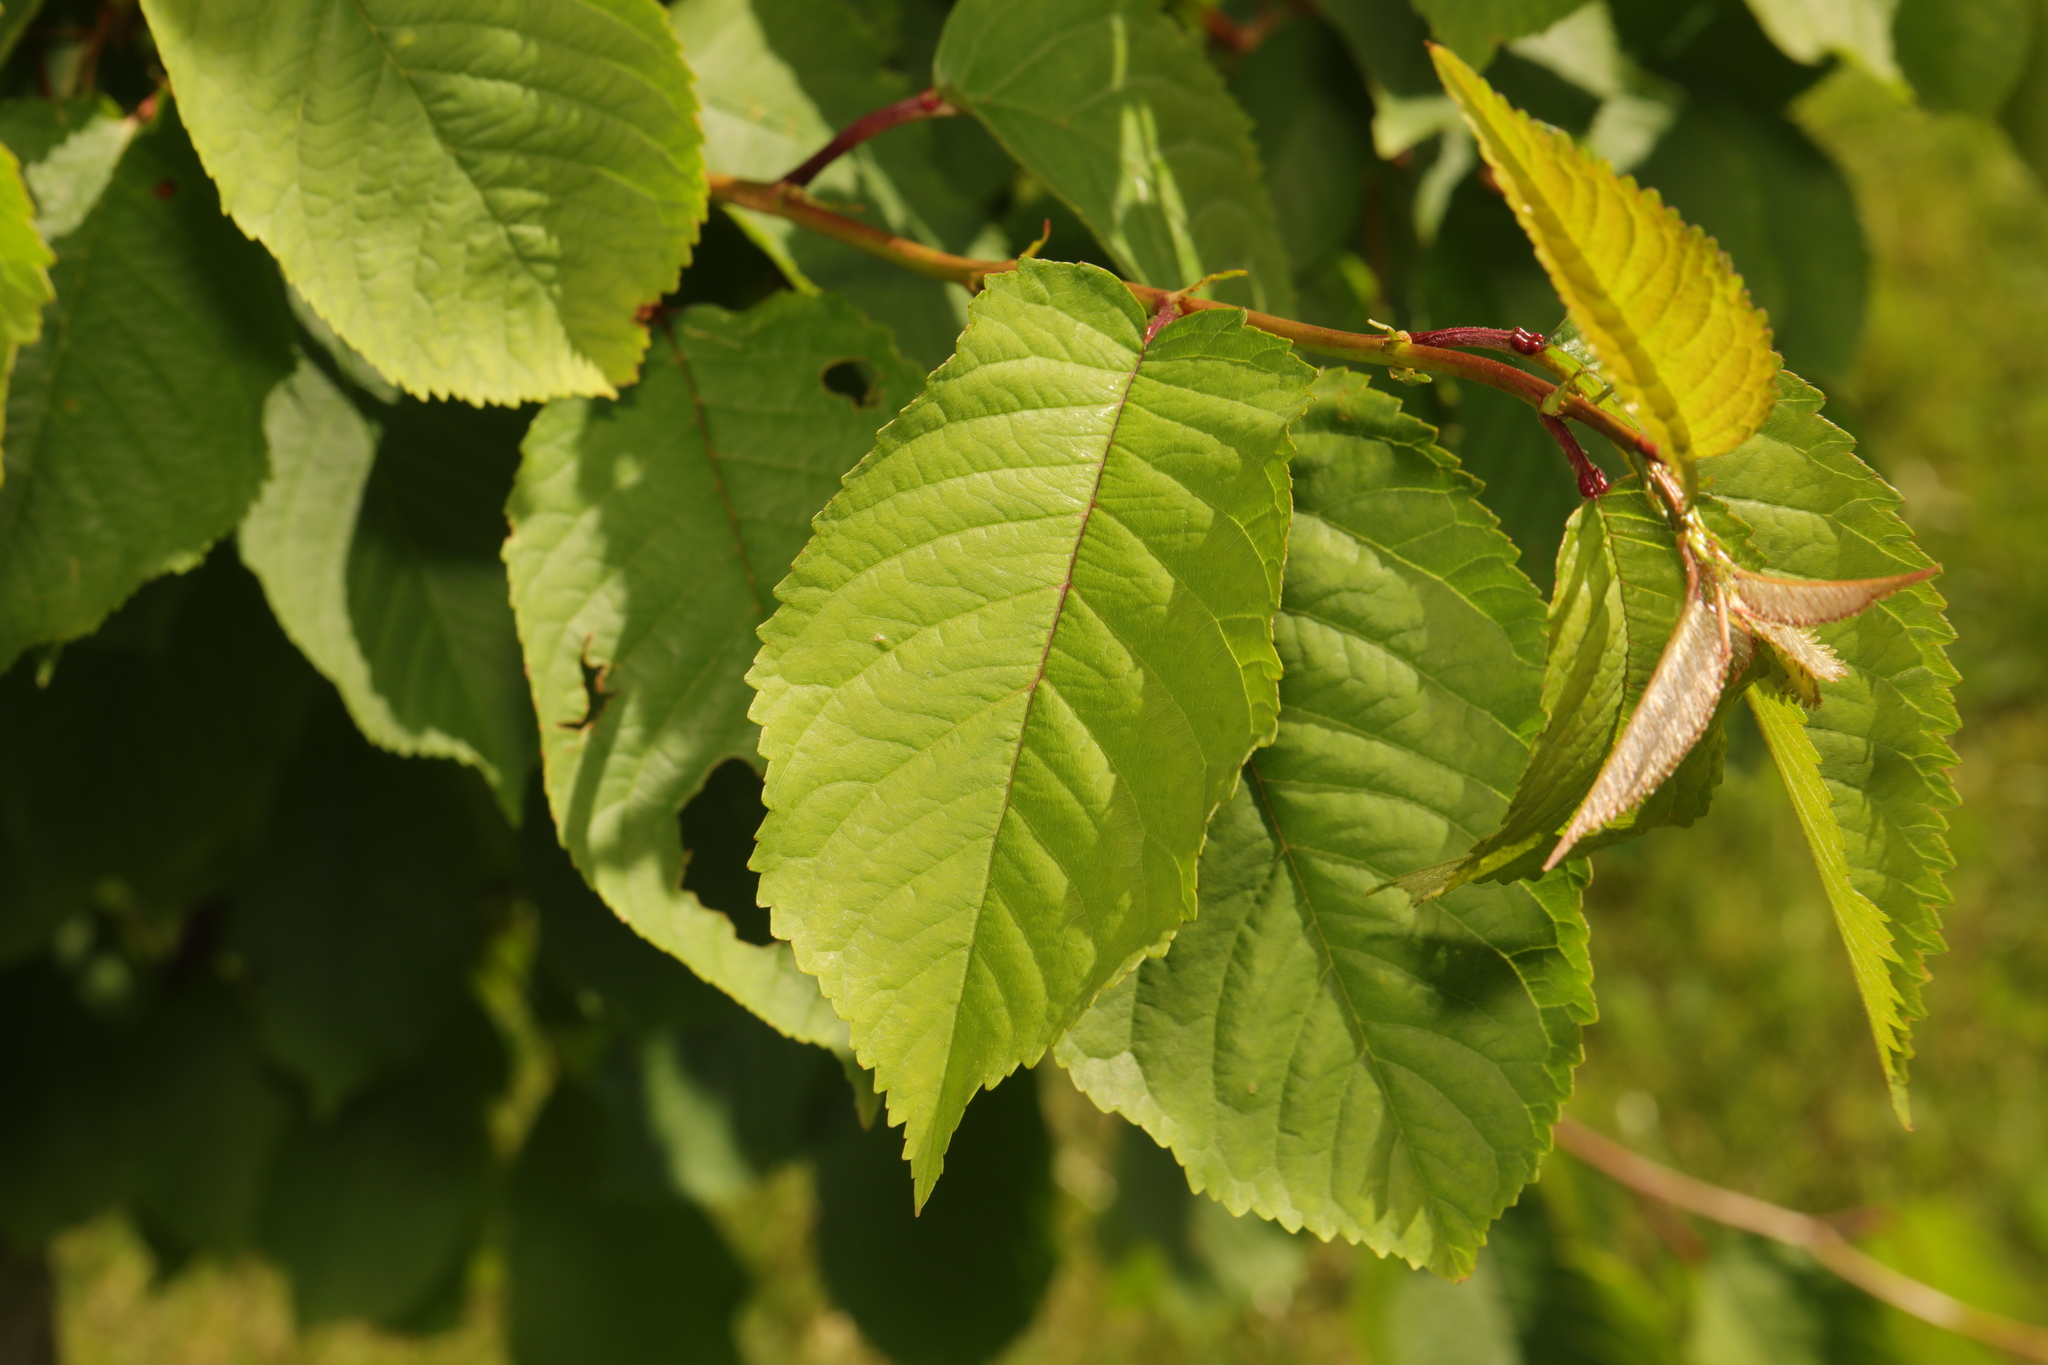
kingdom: Plantae
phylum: Tracheophyta
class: Magnoliopsida
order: Rosales
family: Rosaceae
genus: Prunus
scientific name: Prunus avium
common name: Sweet cherry
